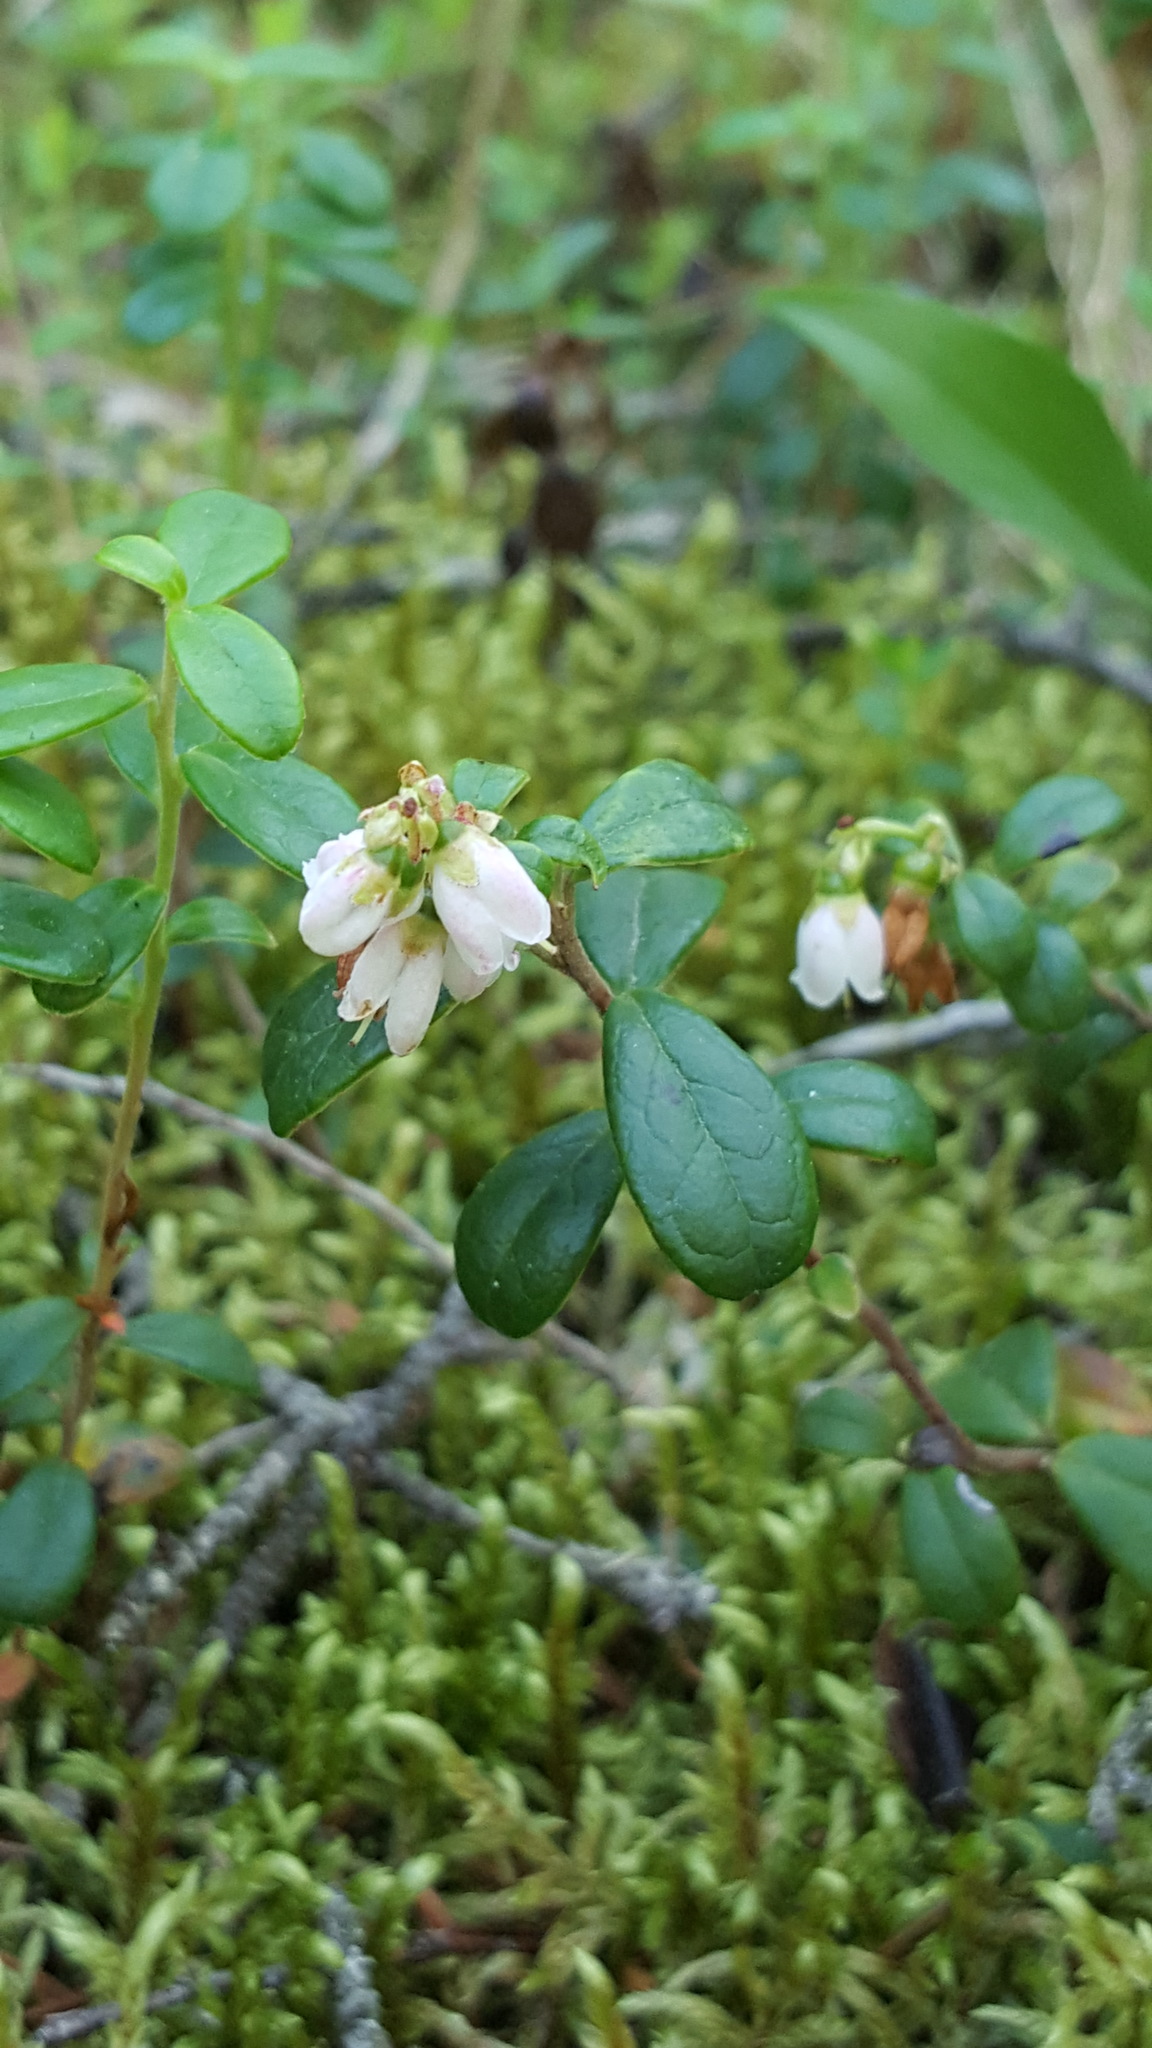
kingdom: Plantae
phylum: Tracheophyta
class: Magnoliopsida
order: Ericales
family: Ericaceae
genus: Vaccinium
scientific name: Vaccinium vitis-idaea
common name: Cowberry
